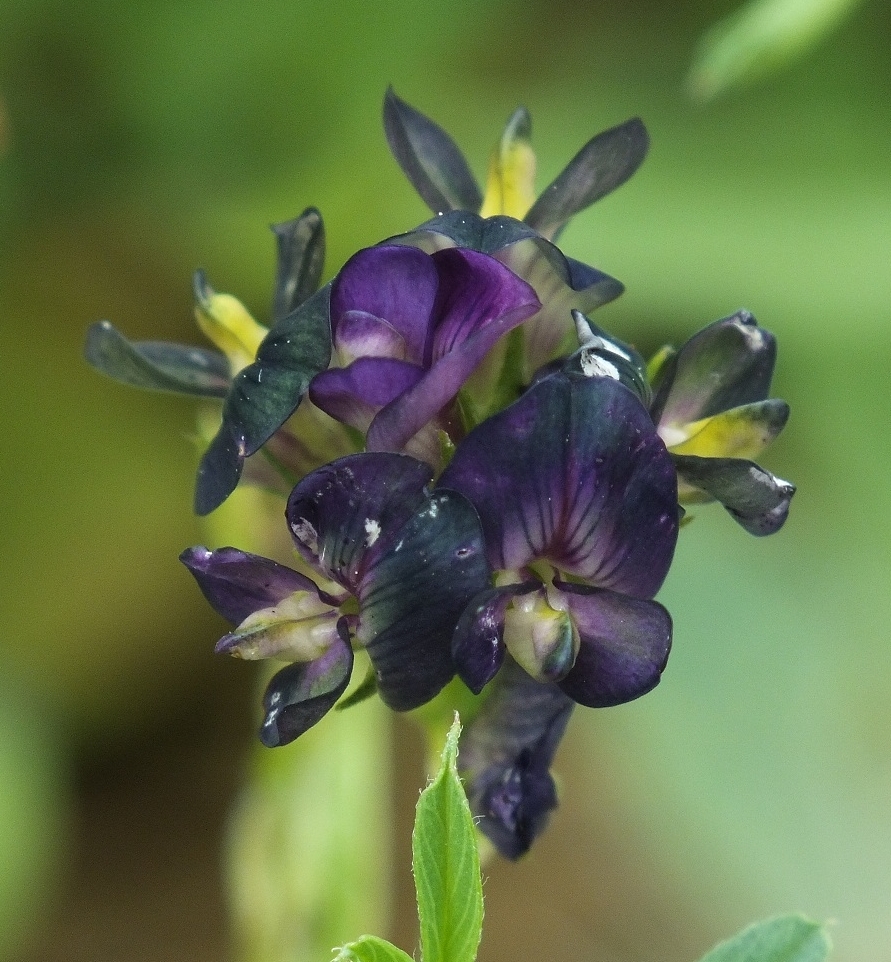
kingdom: Plantae
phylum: Tracheophyta
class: Magnoliopsida
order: Fabales
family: Fabaceae
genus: Medicago
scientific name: Medicago sativa
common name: Alfalfa
